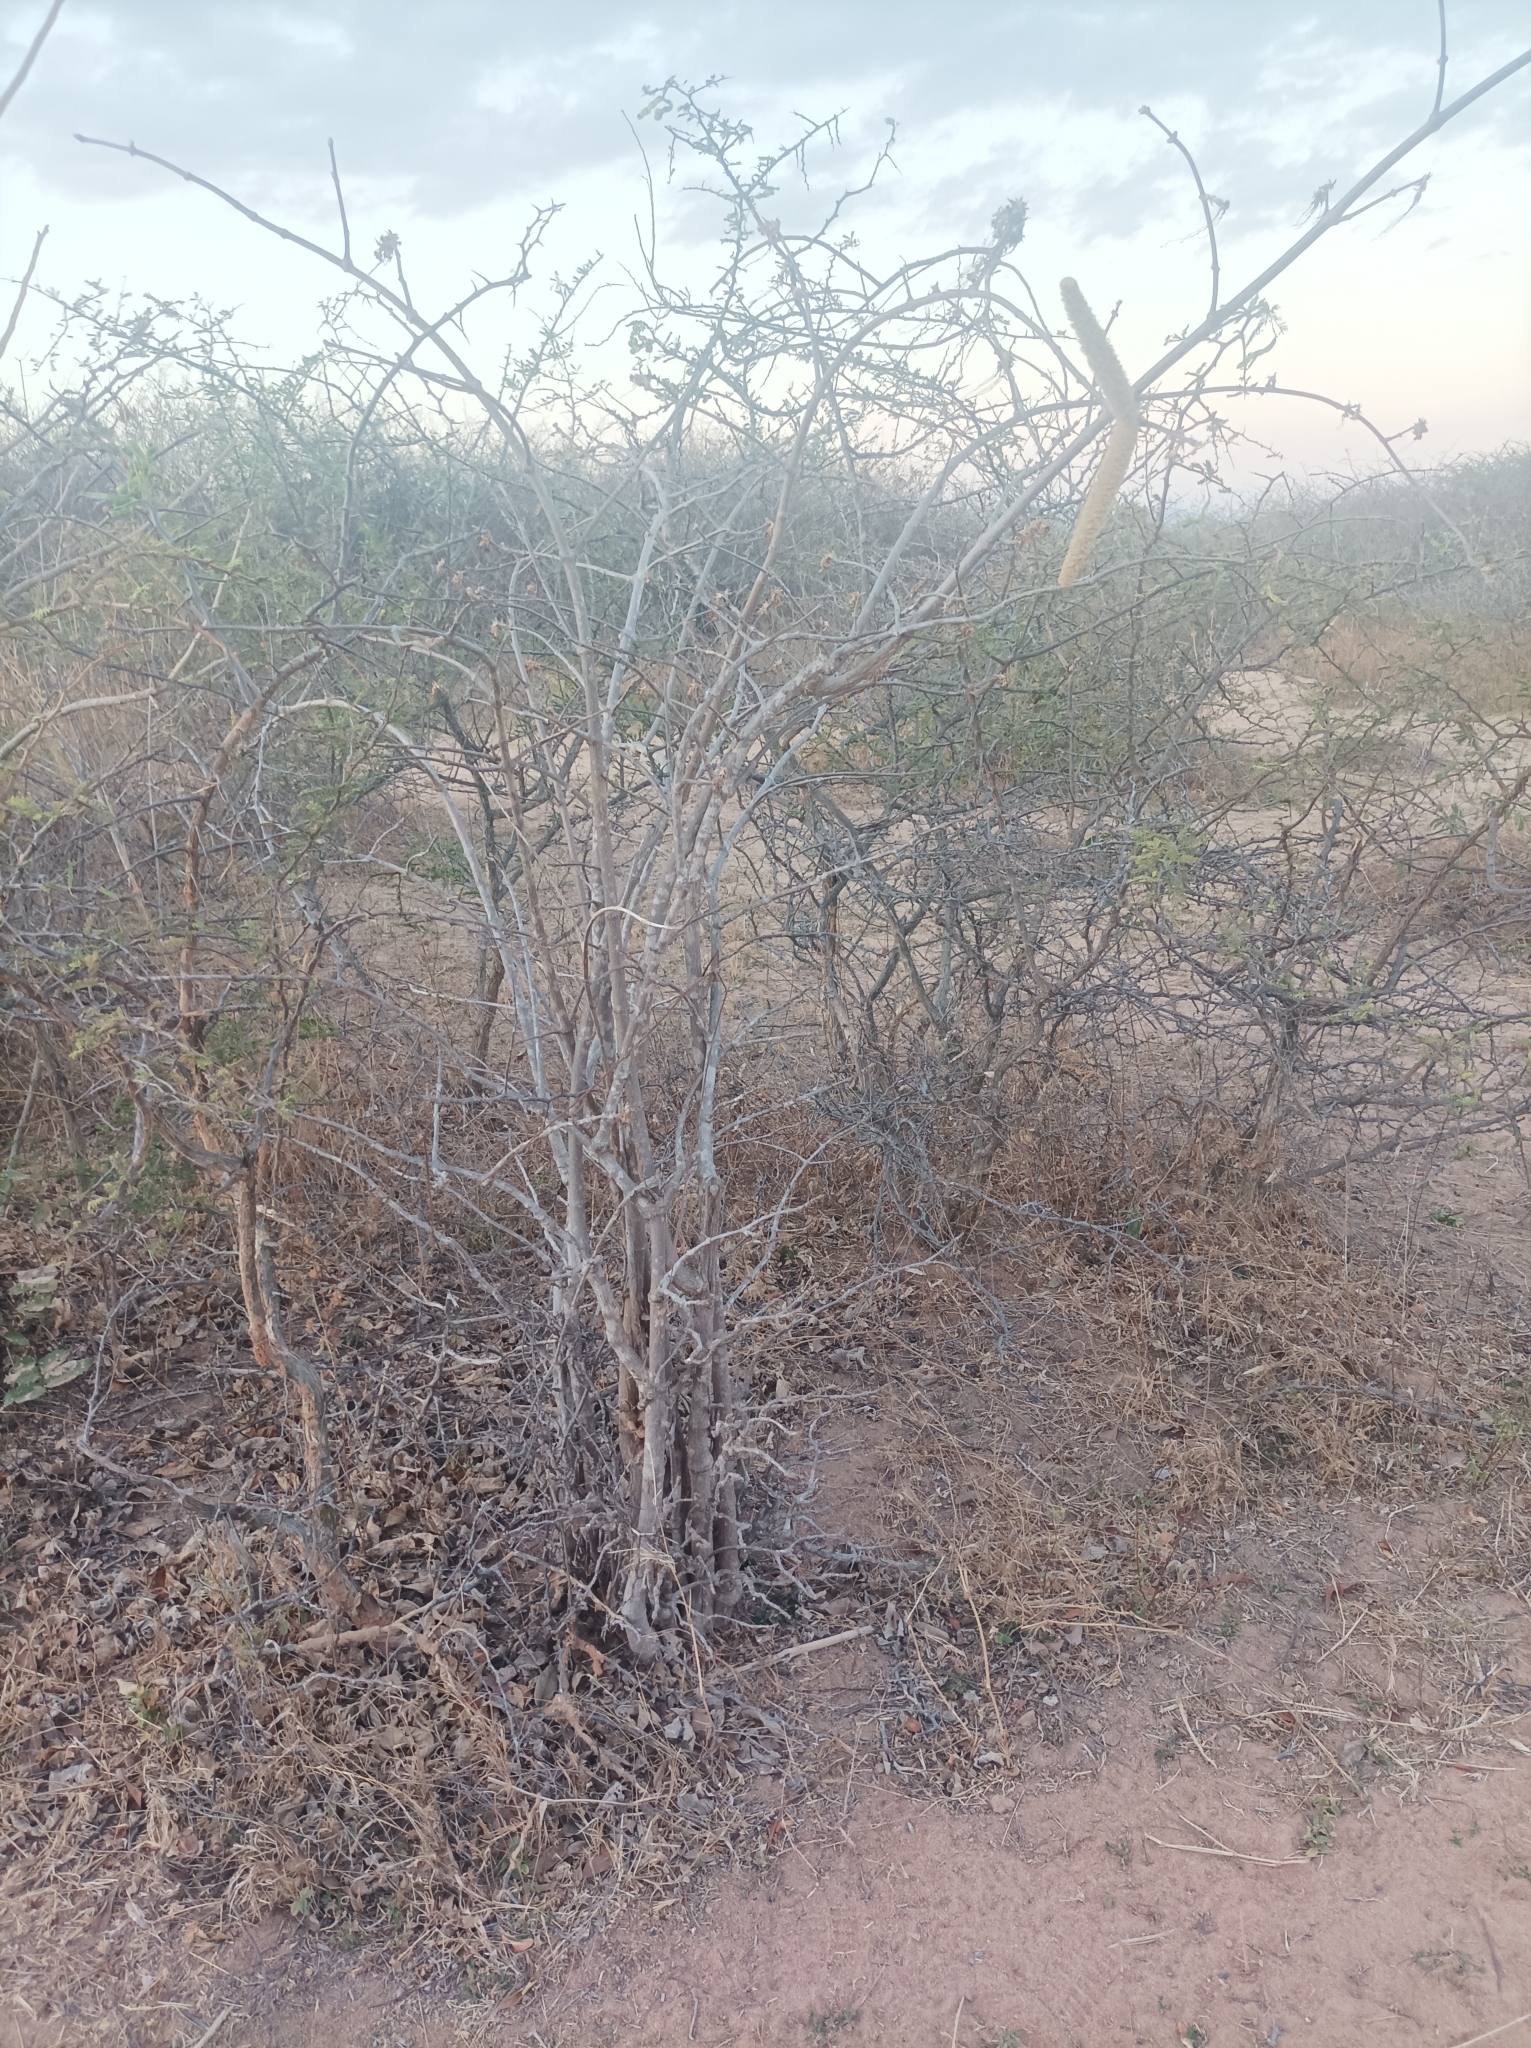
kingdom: Plantae
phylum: Tracheophyta
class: Magnoliopsida
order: Gentianales
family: Apocynaceae
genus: Strophanthus
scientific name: Strophanthus eminii
